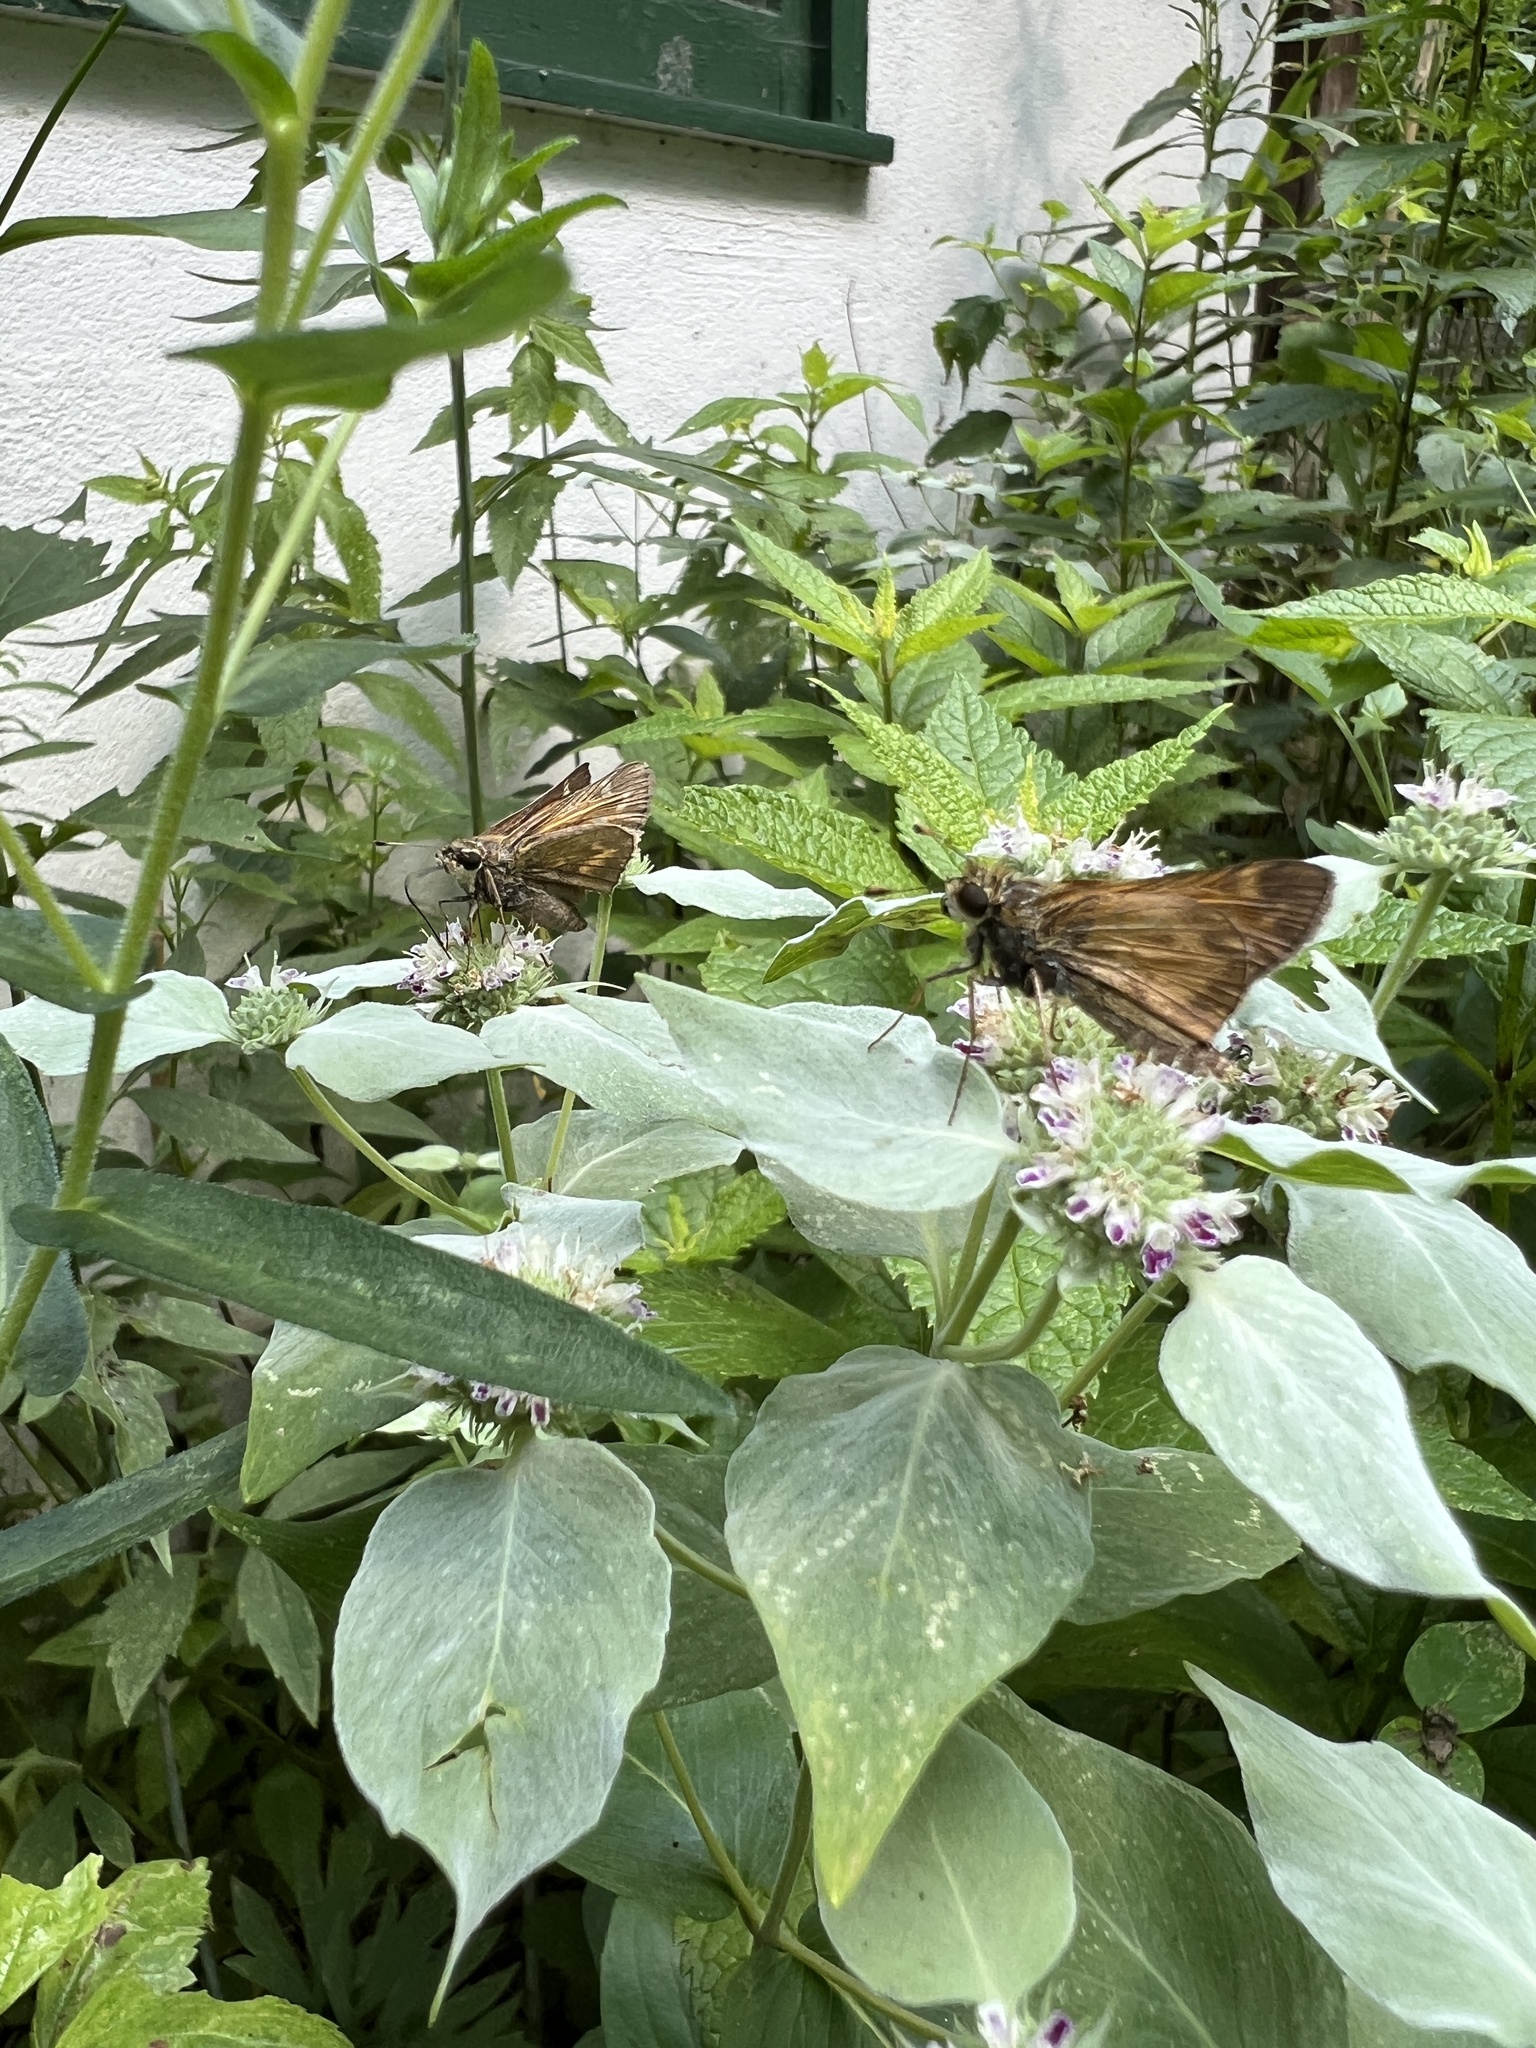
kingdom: Animalia
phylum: Arthropoda
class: Insecta
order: Lepidoptera
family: Hesperiidae
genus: Atalopedes
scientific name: Atalopedes
